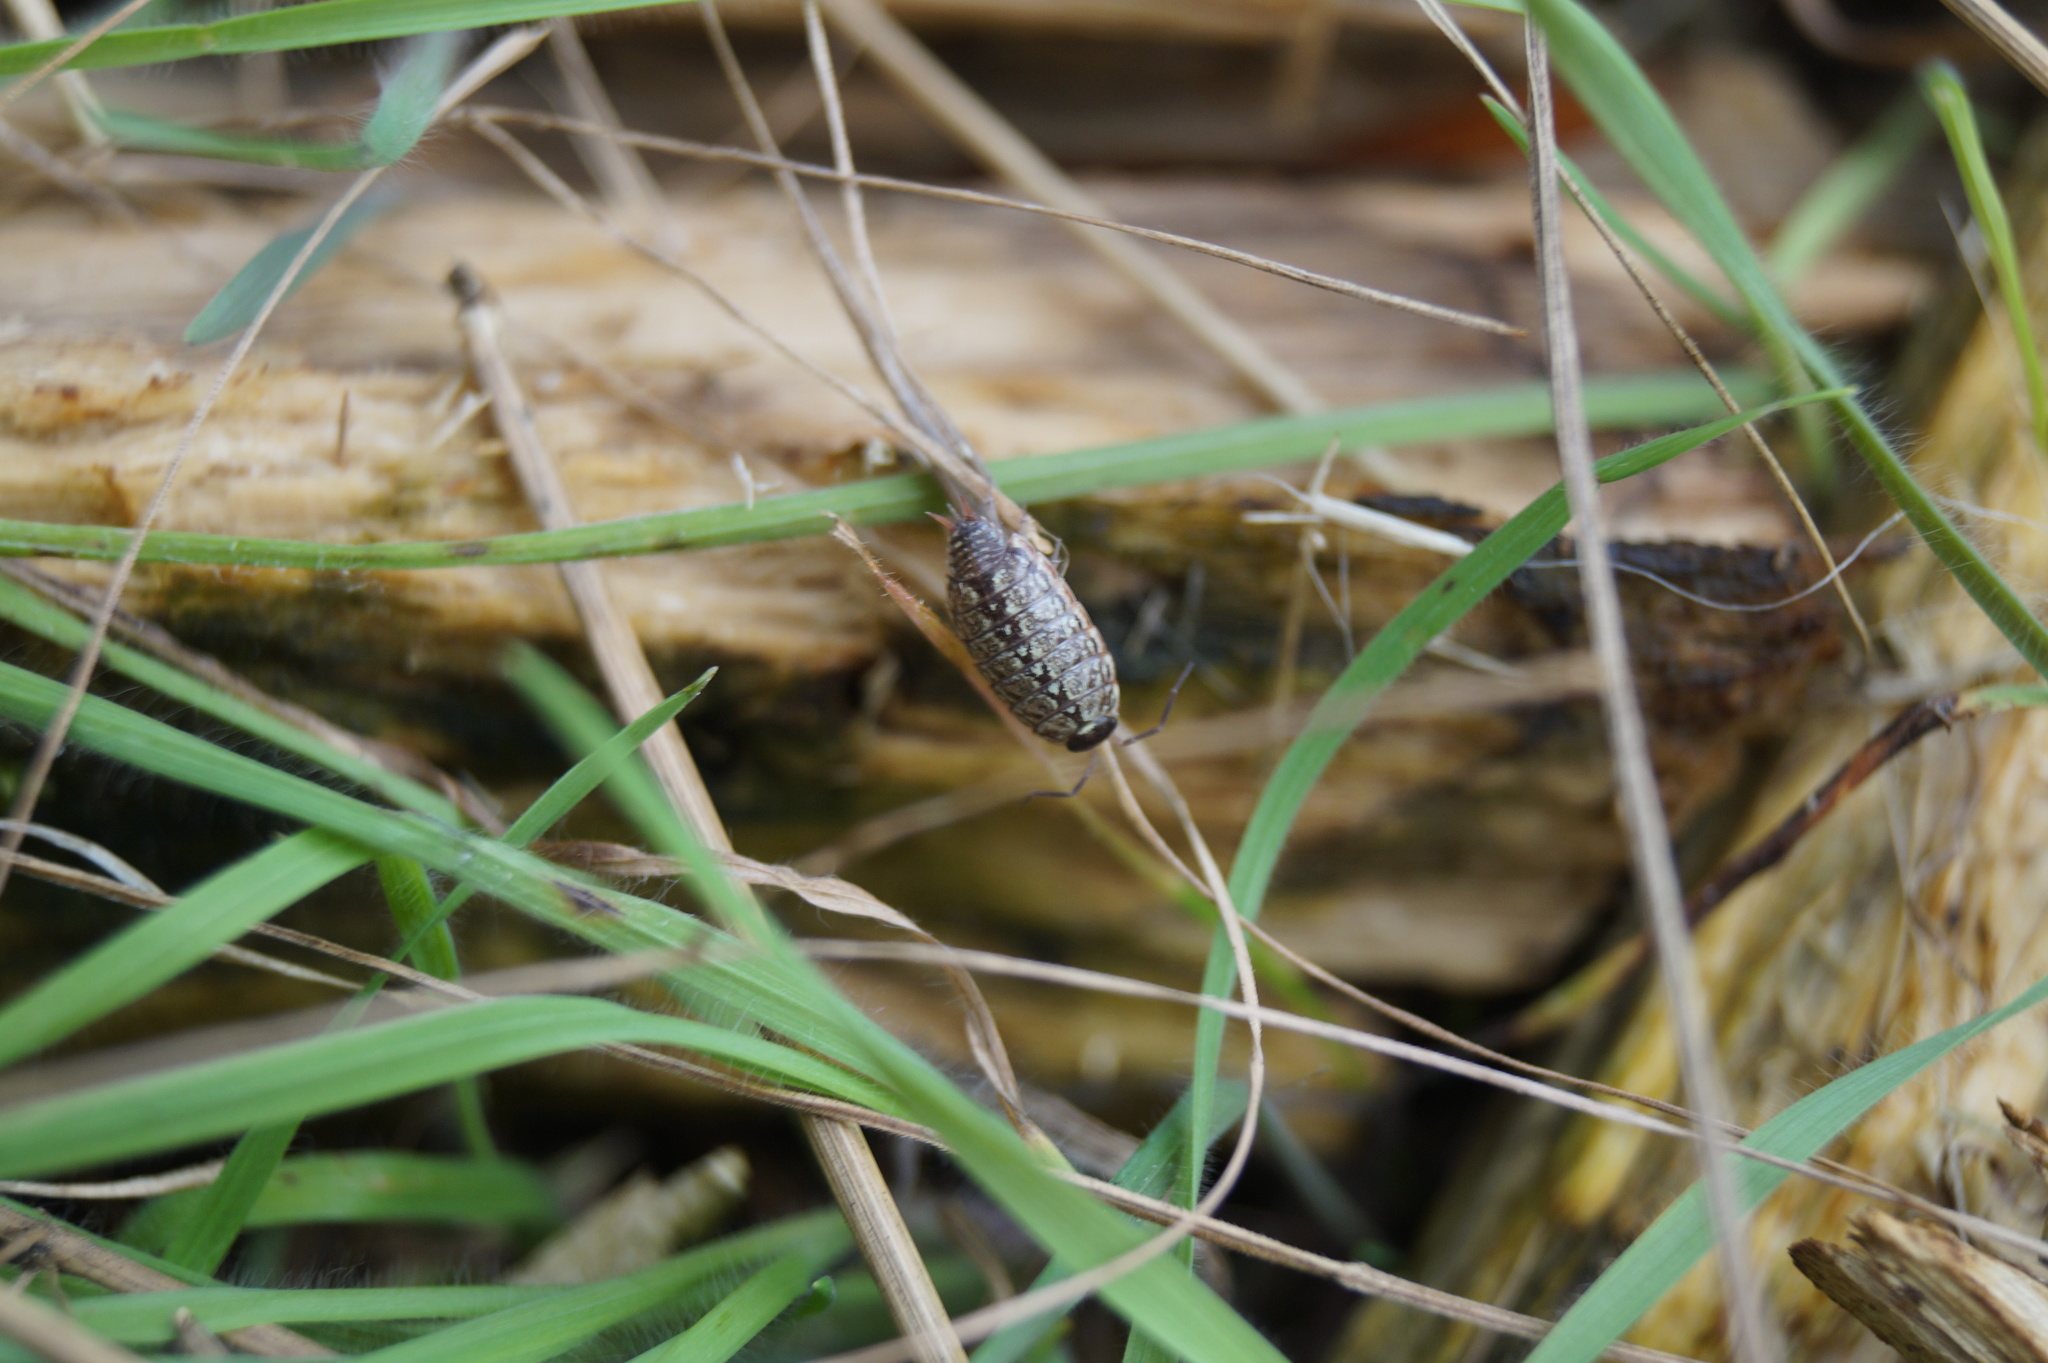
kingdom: Animalia
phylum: Arthropoda
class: Malacostraca
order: Isopoda
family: Philosciidae
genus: Philoscia
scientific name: Philoscia muscorum
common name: Common striped woodlouse
